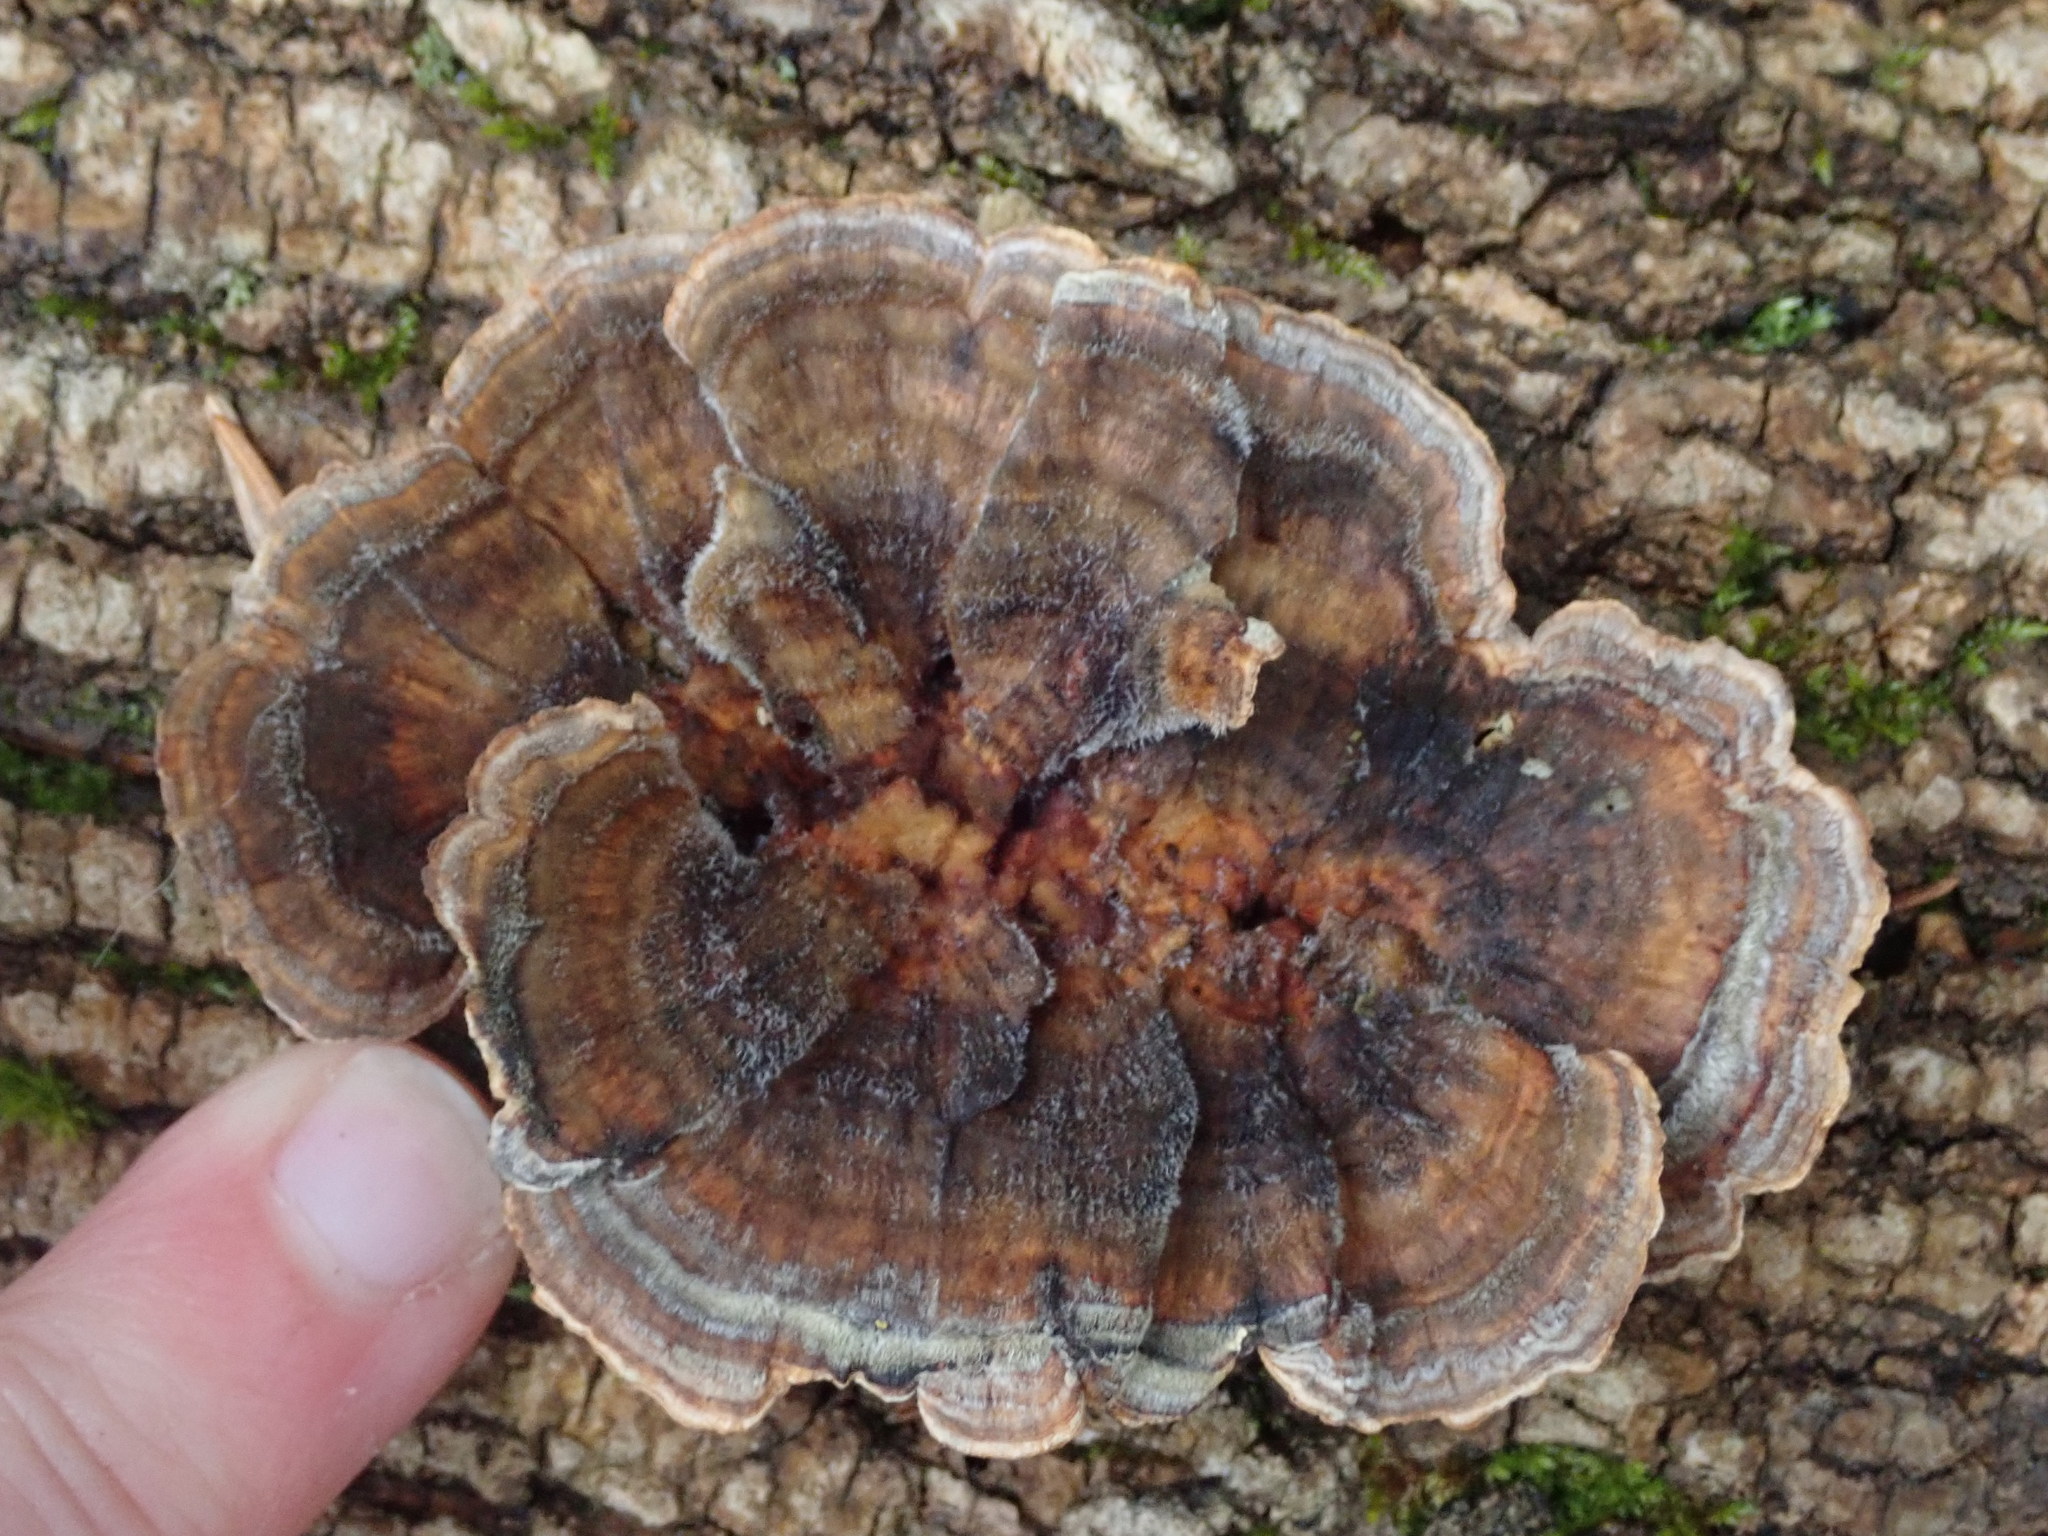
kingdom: Fungi
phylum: Basidiomycota
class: Agaricomycetes
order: Polyporales
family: Polyporaceae
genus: Trametes
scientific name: Trametes versicolor
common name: Turkeytail
